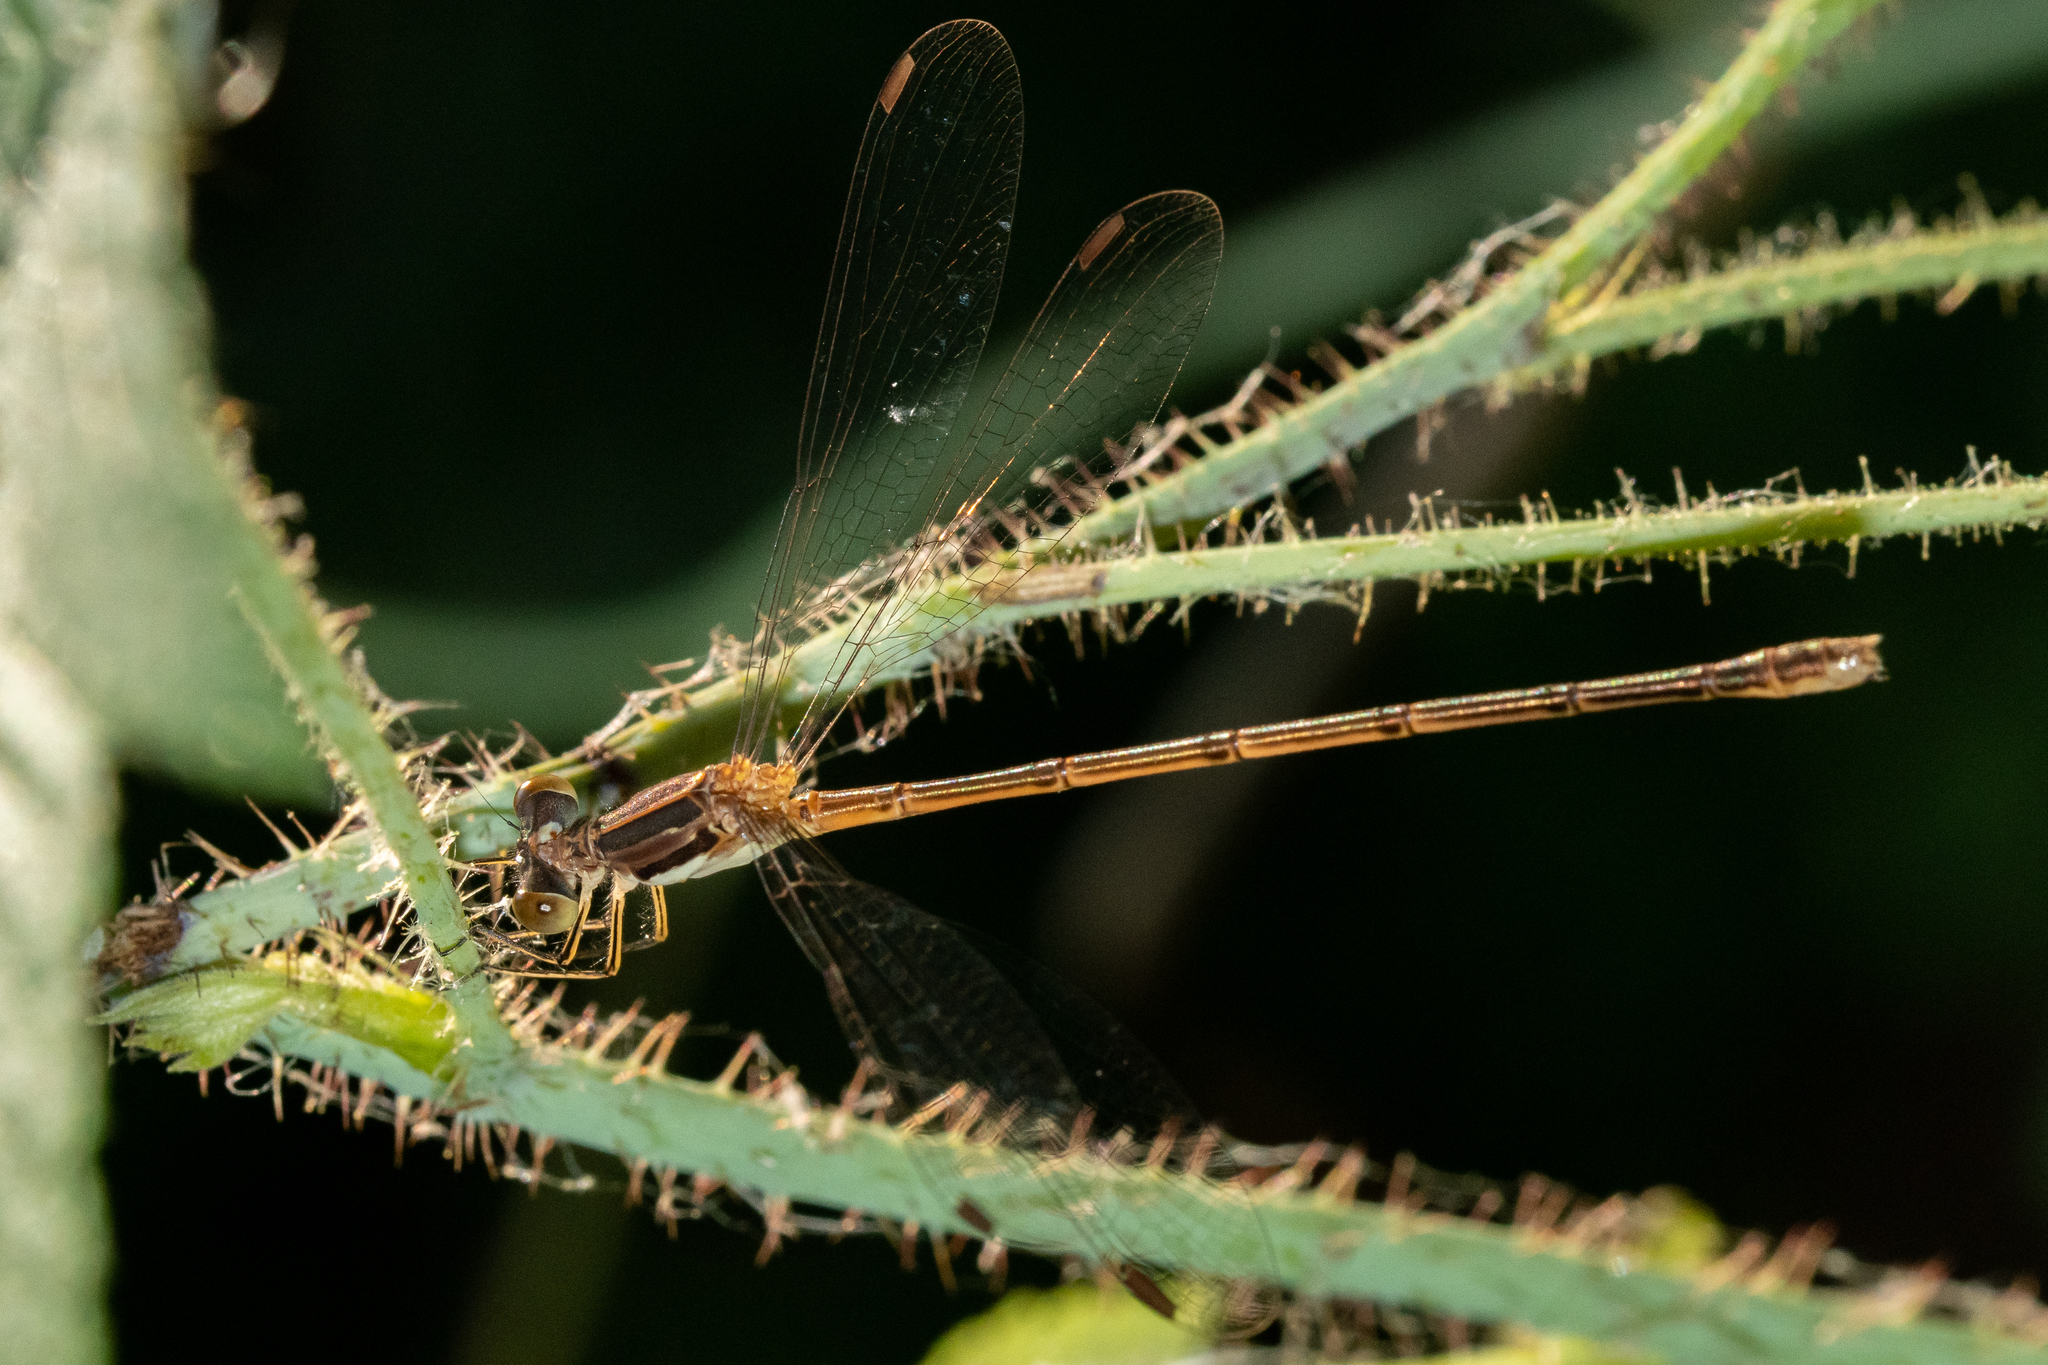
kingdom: Animalia
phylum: Arthropoda
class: Insecta
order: Odonata
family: Lestidae
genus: Lestes
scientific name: Lestes rectangularis
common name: Slender spreadwing
